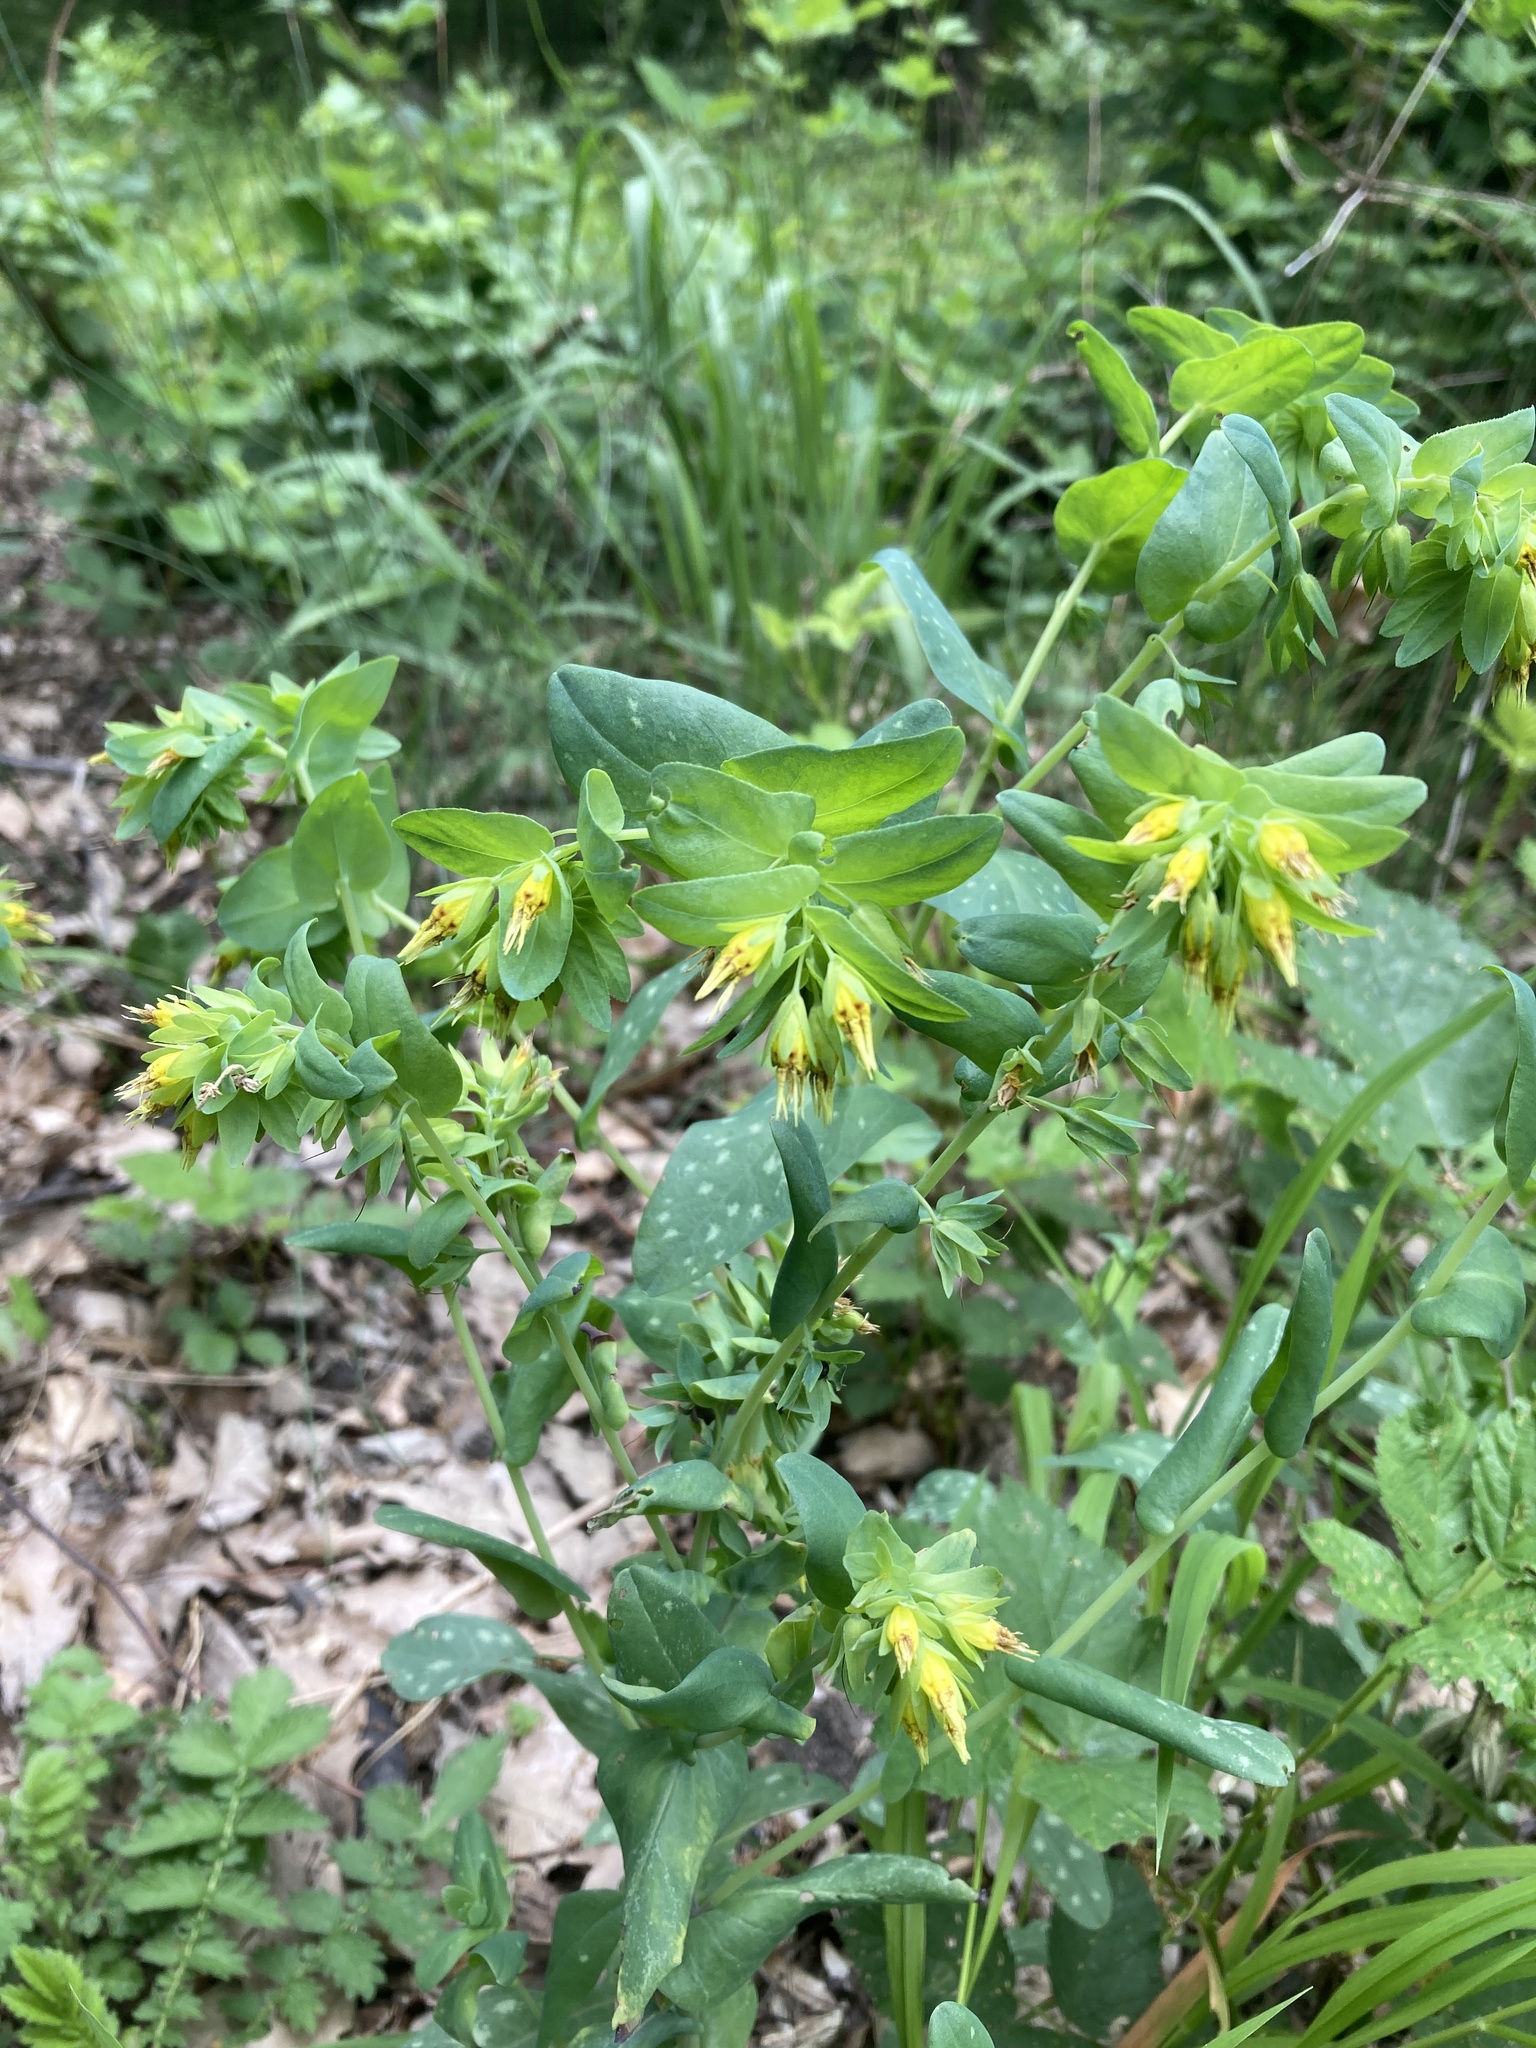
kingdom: Plantae
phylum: Tracheophyta
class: Magnoliopsida
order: Boraginales
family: Boraginaceae
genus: Cerinthe
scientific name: Cerinthe minor
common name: Lesser honeywort
